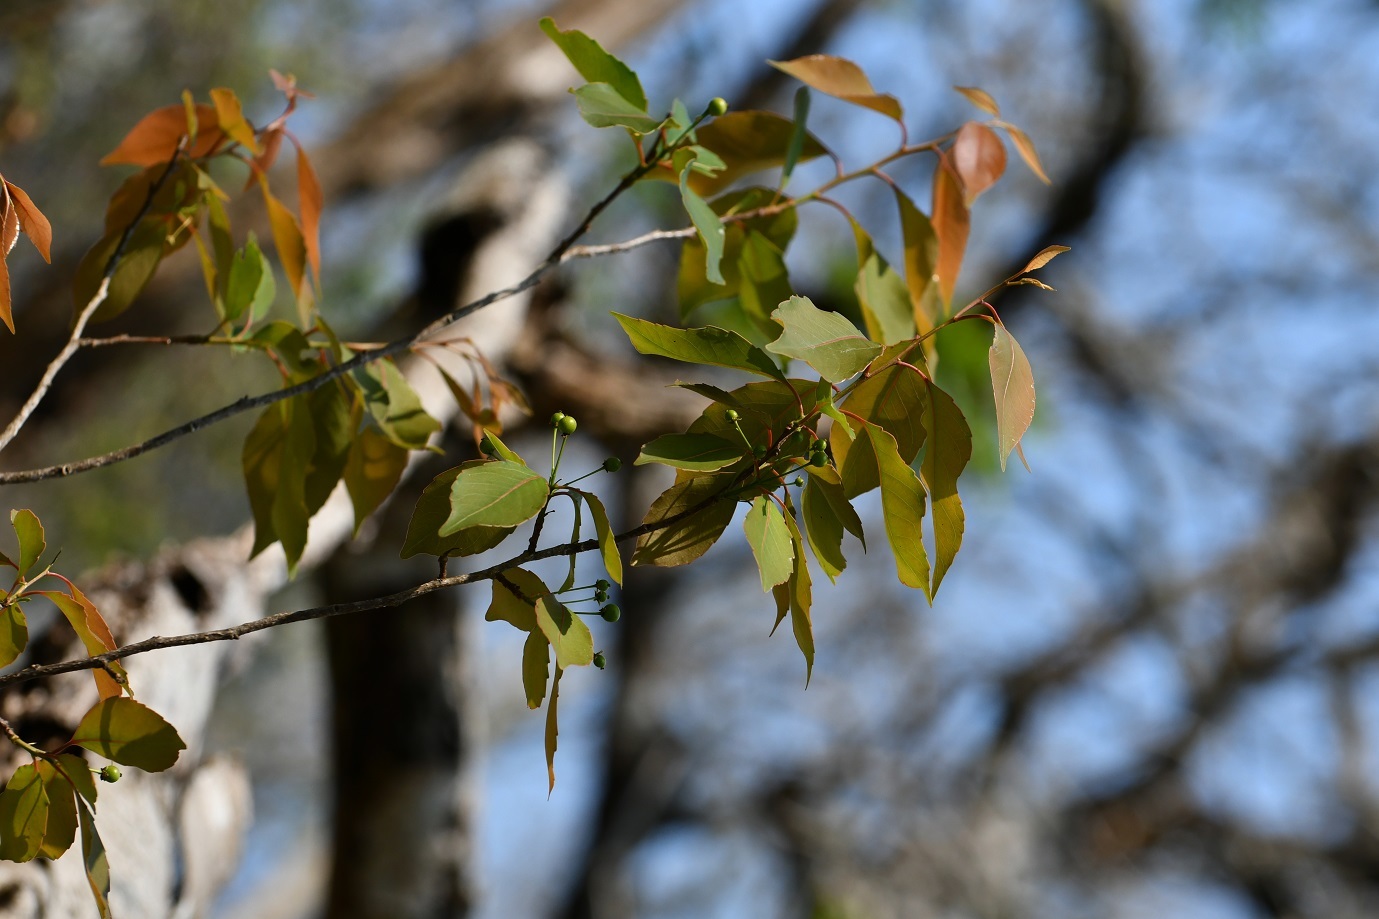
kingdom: Plantae
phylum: Tracheophyta
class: Magnoliopsida
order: Celastrales
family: Celastraceae
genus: Maytenus
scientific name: Maytenus repanda
